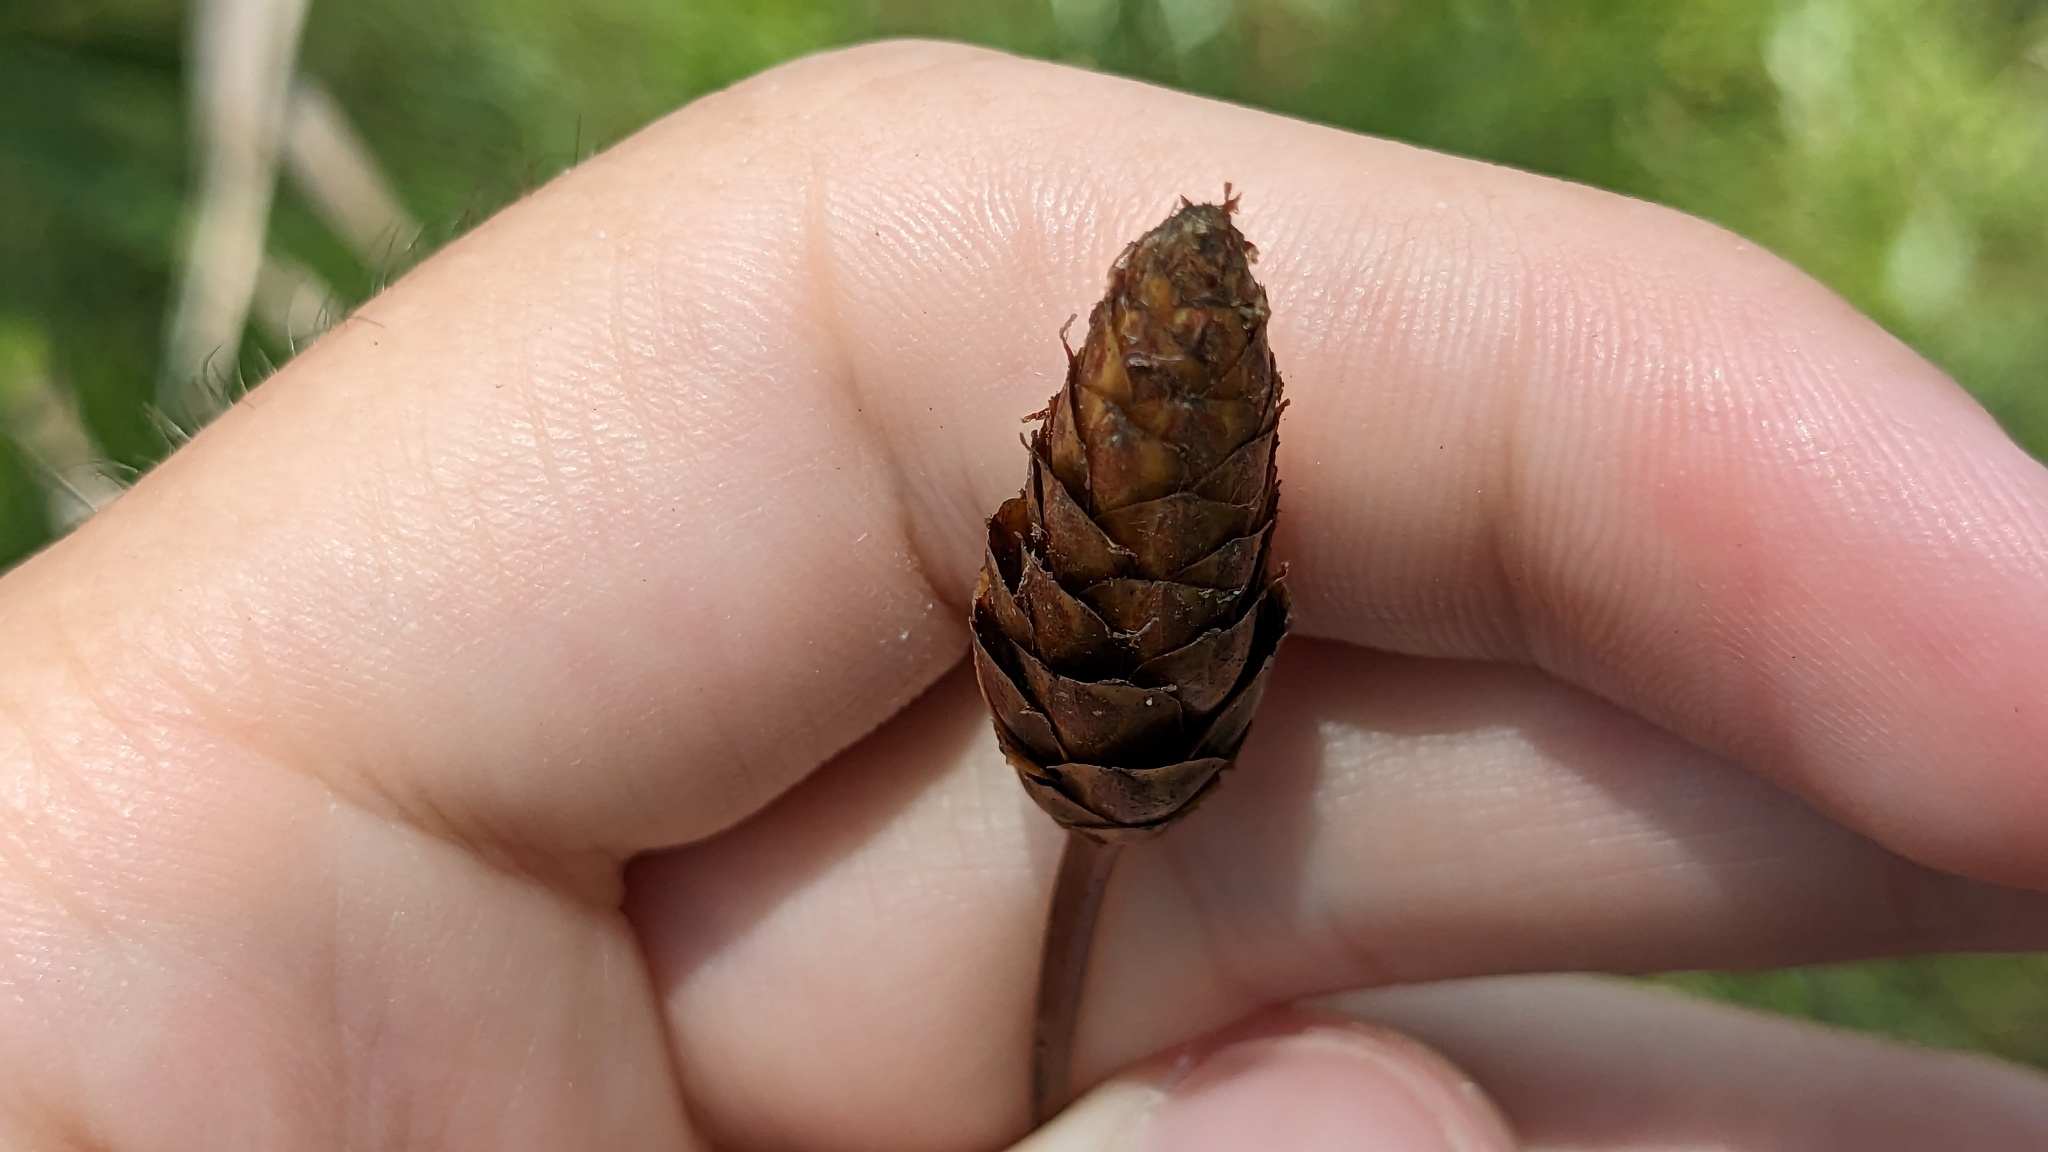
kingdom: Plantae
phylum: Tracheophyta
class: Liliopsida
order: Poales
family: Xyridaceae
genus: Xyris
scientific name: Xyris caroliniana
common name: Carolina yellow-eyed-grass
